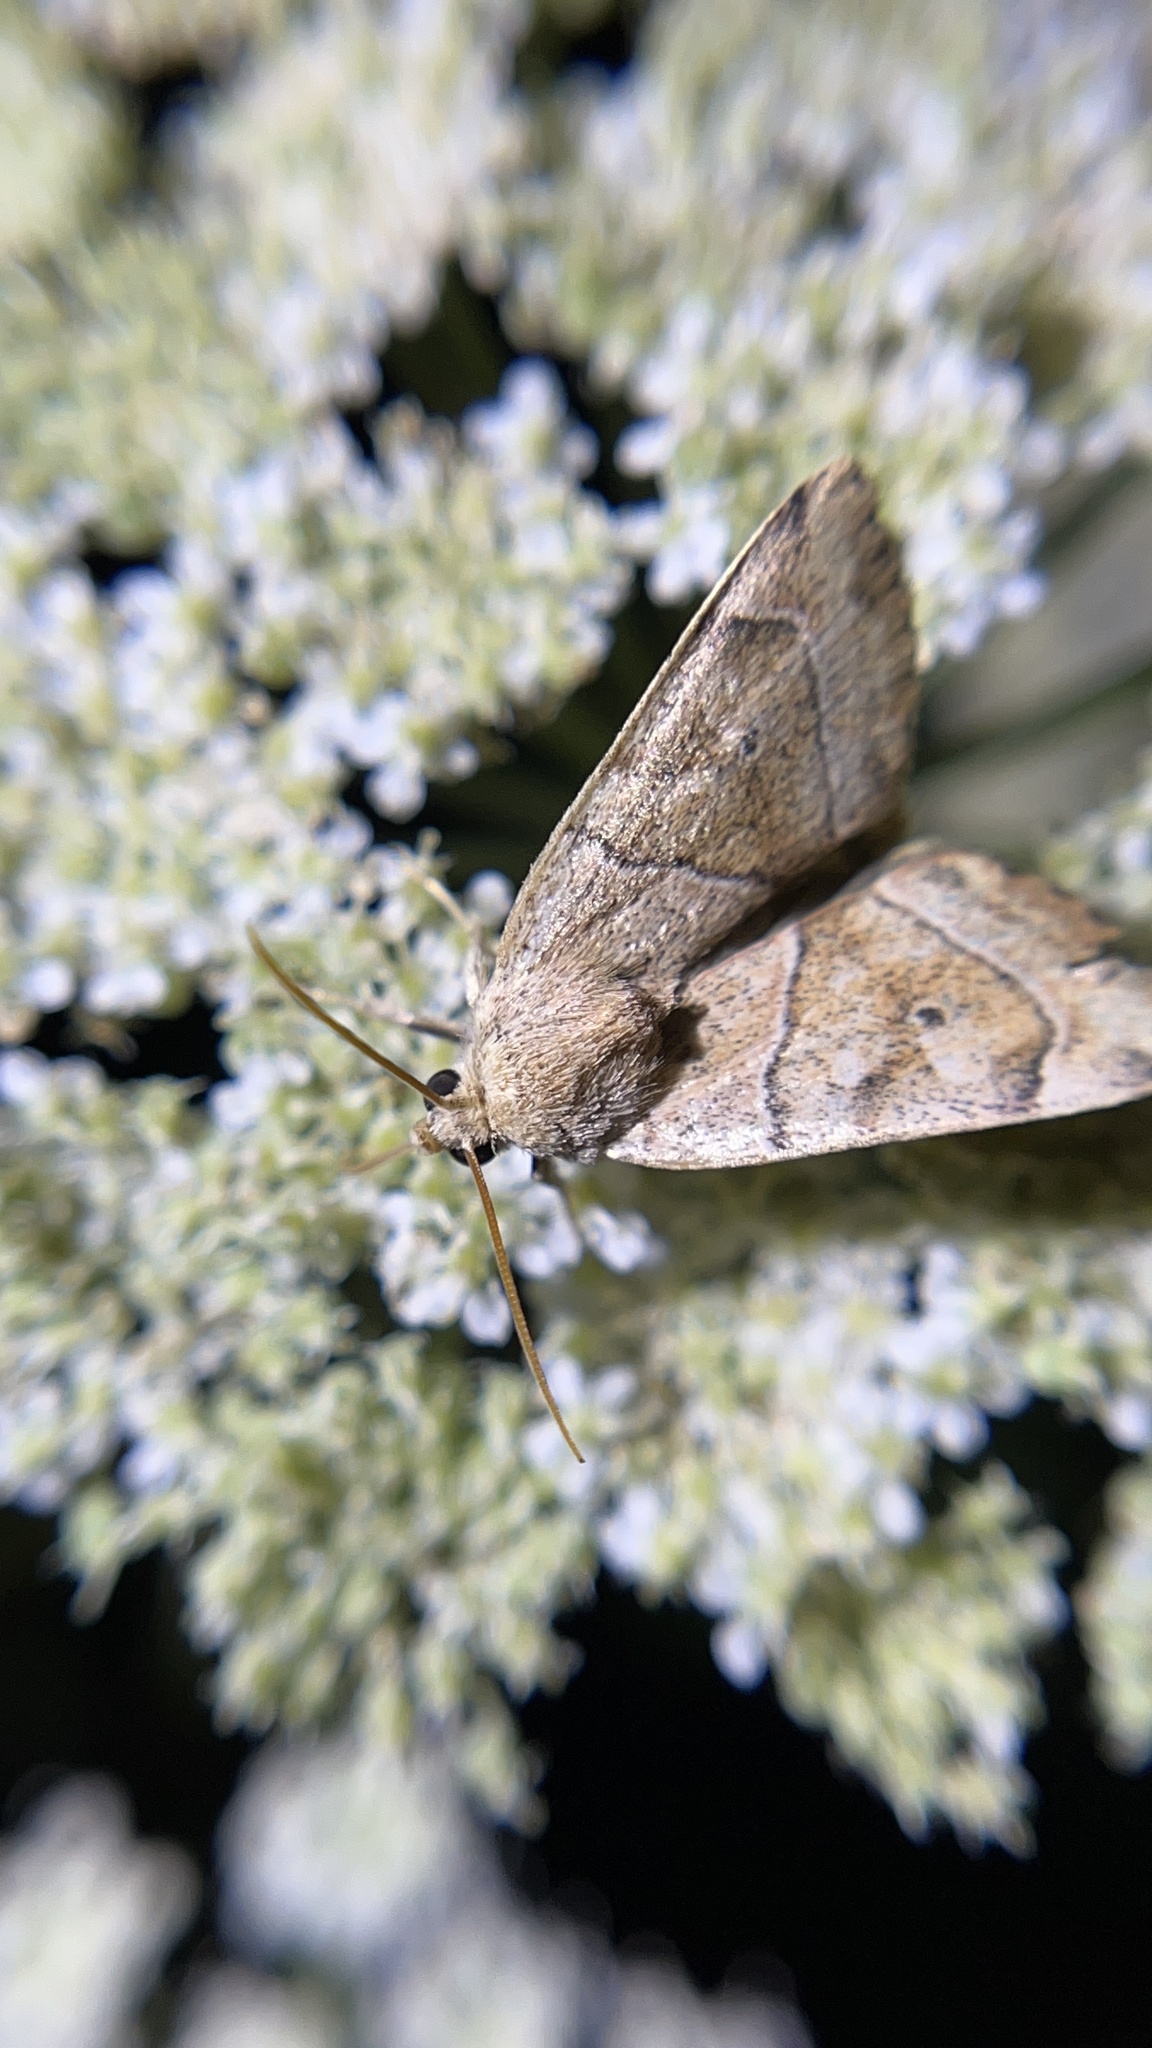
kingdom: Animalia
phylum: Arthropoda
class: Insecta
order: Lepidoptera
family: Noctuidae
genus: Cosmia
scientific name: Cosmia trapezina
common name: Dun-bar
